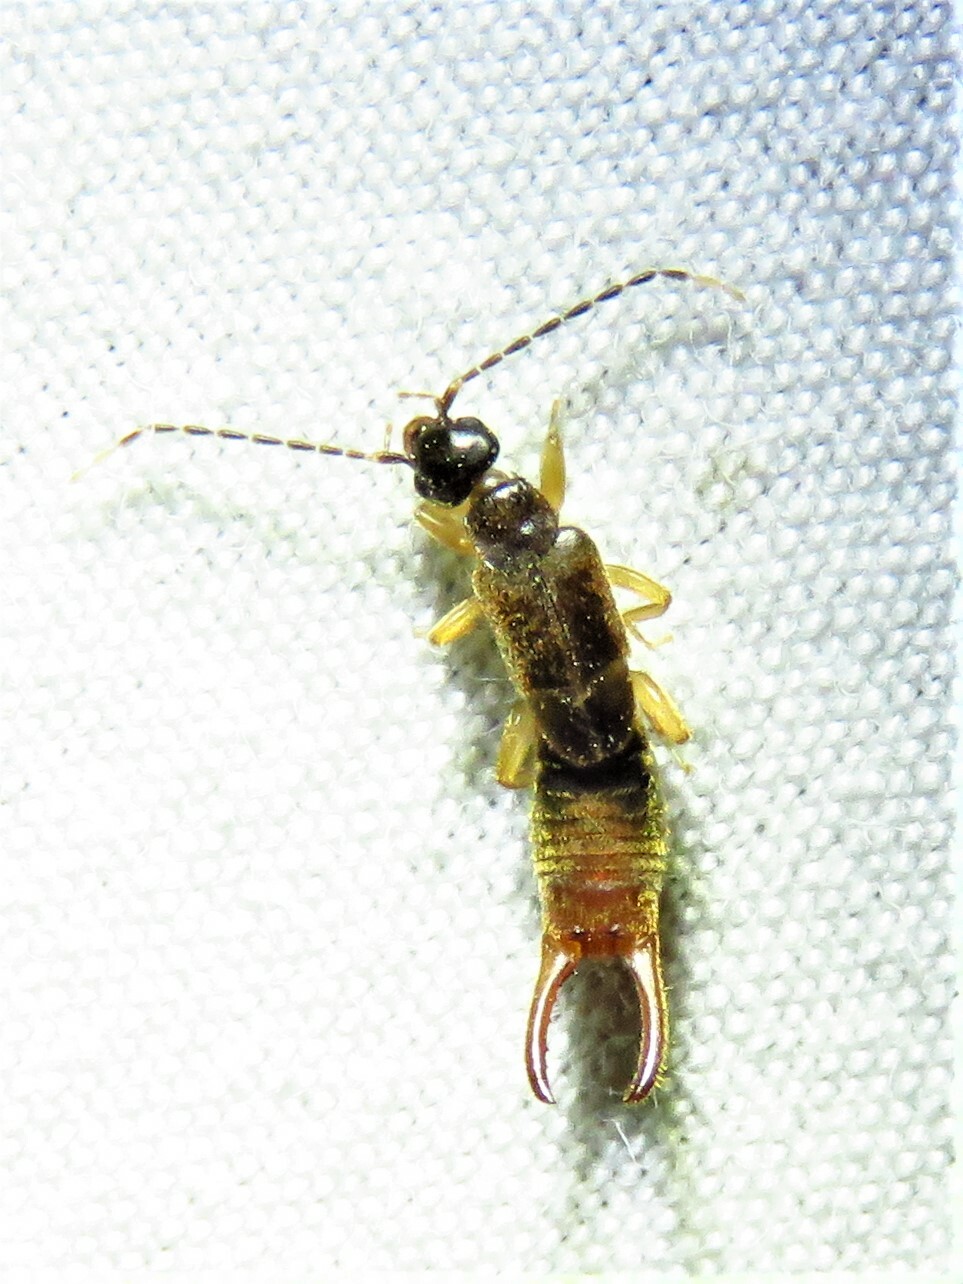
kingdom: Animalia
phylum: Arthropoda
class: Insecta
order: Dermaptera
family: Spongiphoridae
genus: Labia
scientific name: Labia minor
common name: Lesser earwig
